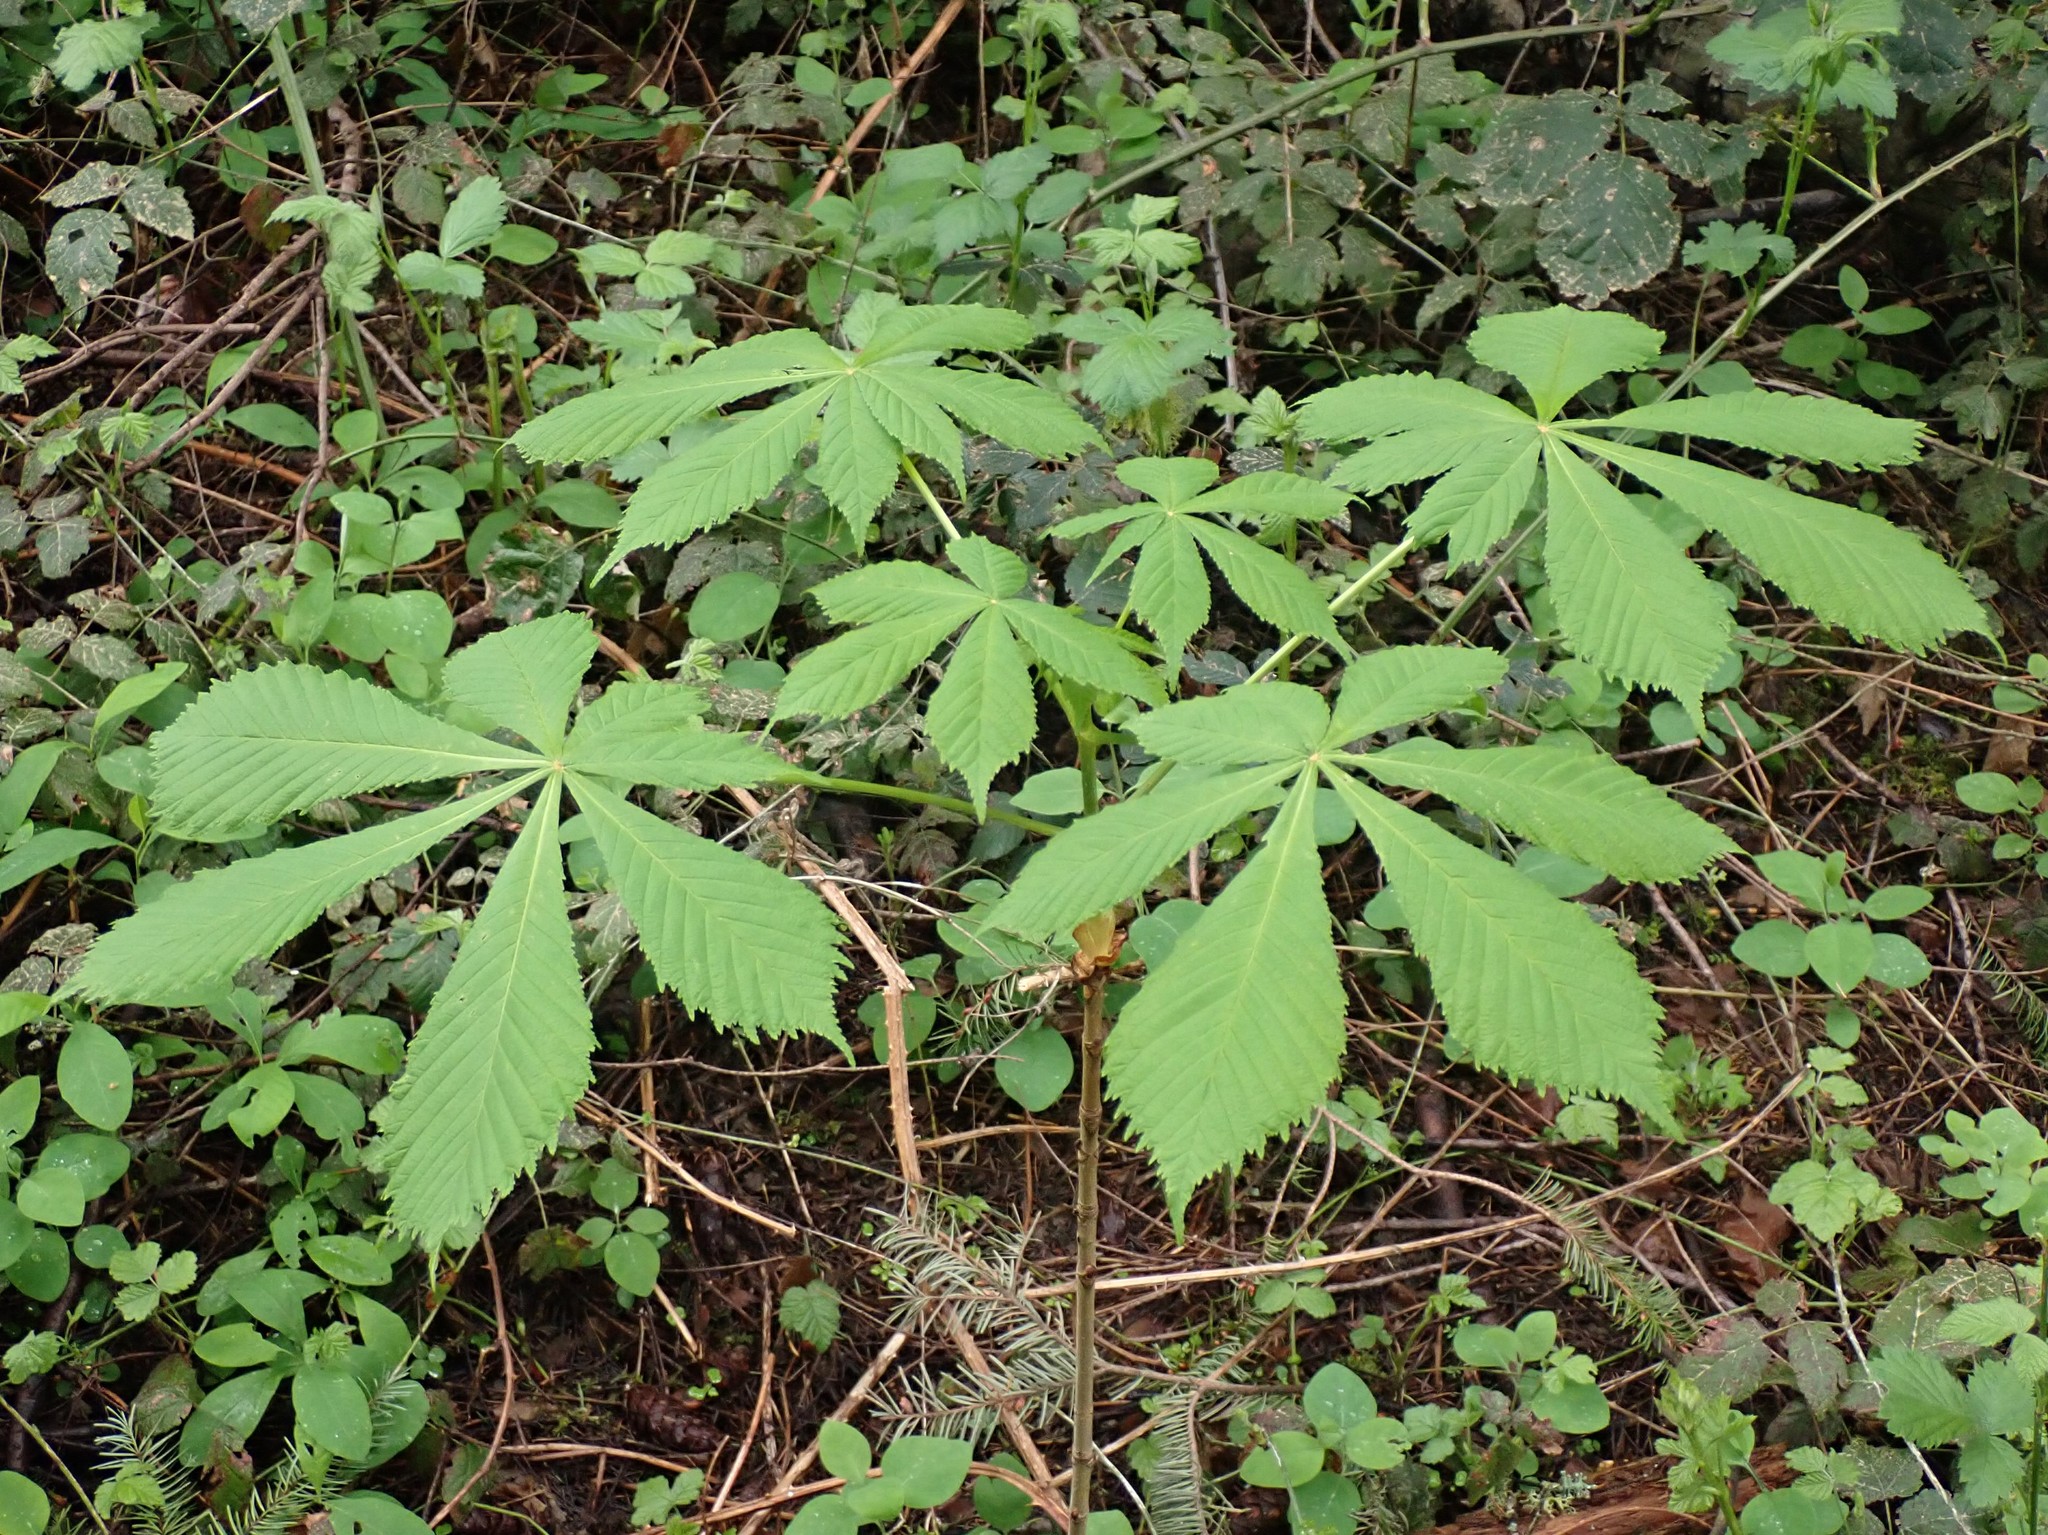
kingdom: Plantae
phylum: Tracheophyta
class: Magnoliopsida
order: Sapindales
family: Sapindaceae
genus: Aesculus
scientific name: Aesculus hippocastanum
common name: Horse-chestnut
